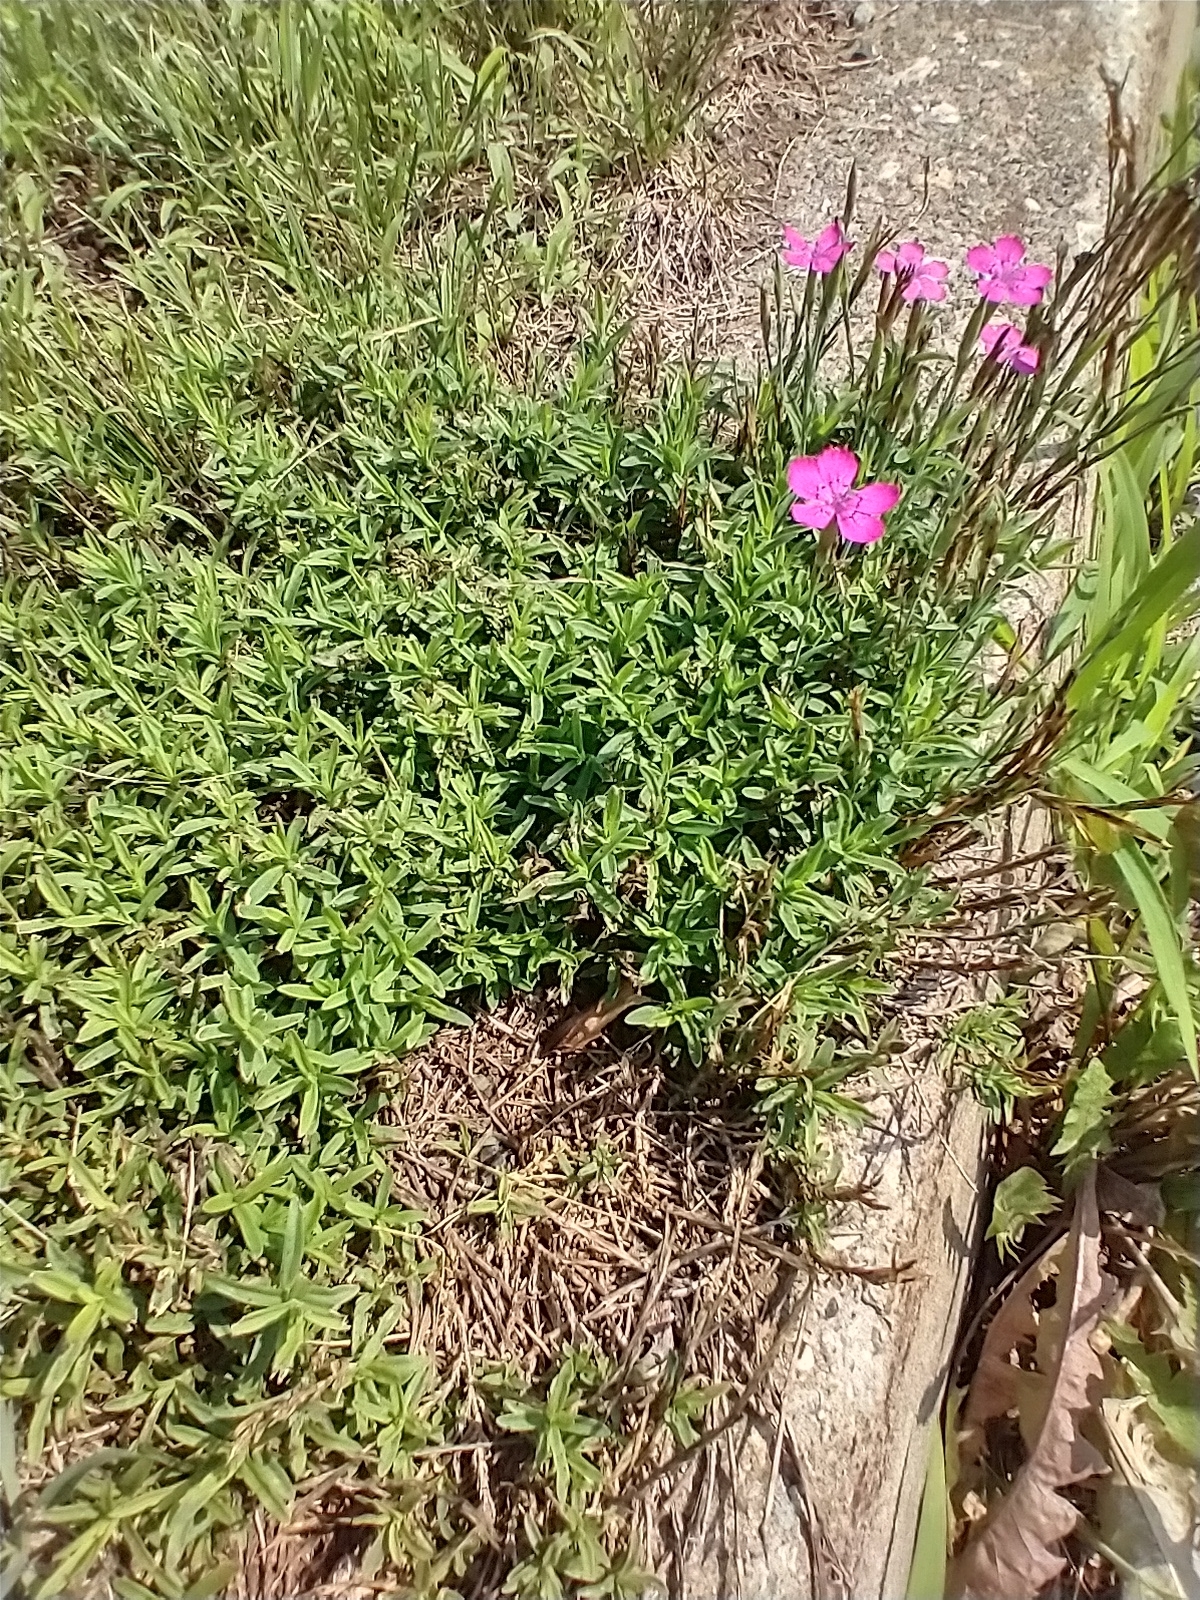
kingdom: Plantae
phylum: Tracheophyta
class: Magnoliopsida
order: Caryophyllales
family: Caryophyllaceae
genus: Dianthus
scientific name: Dianthus deltoides
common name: Maiden pink
